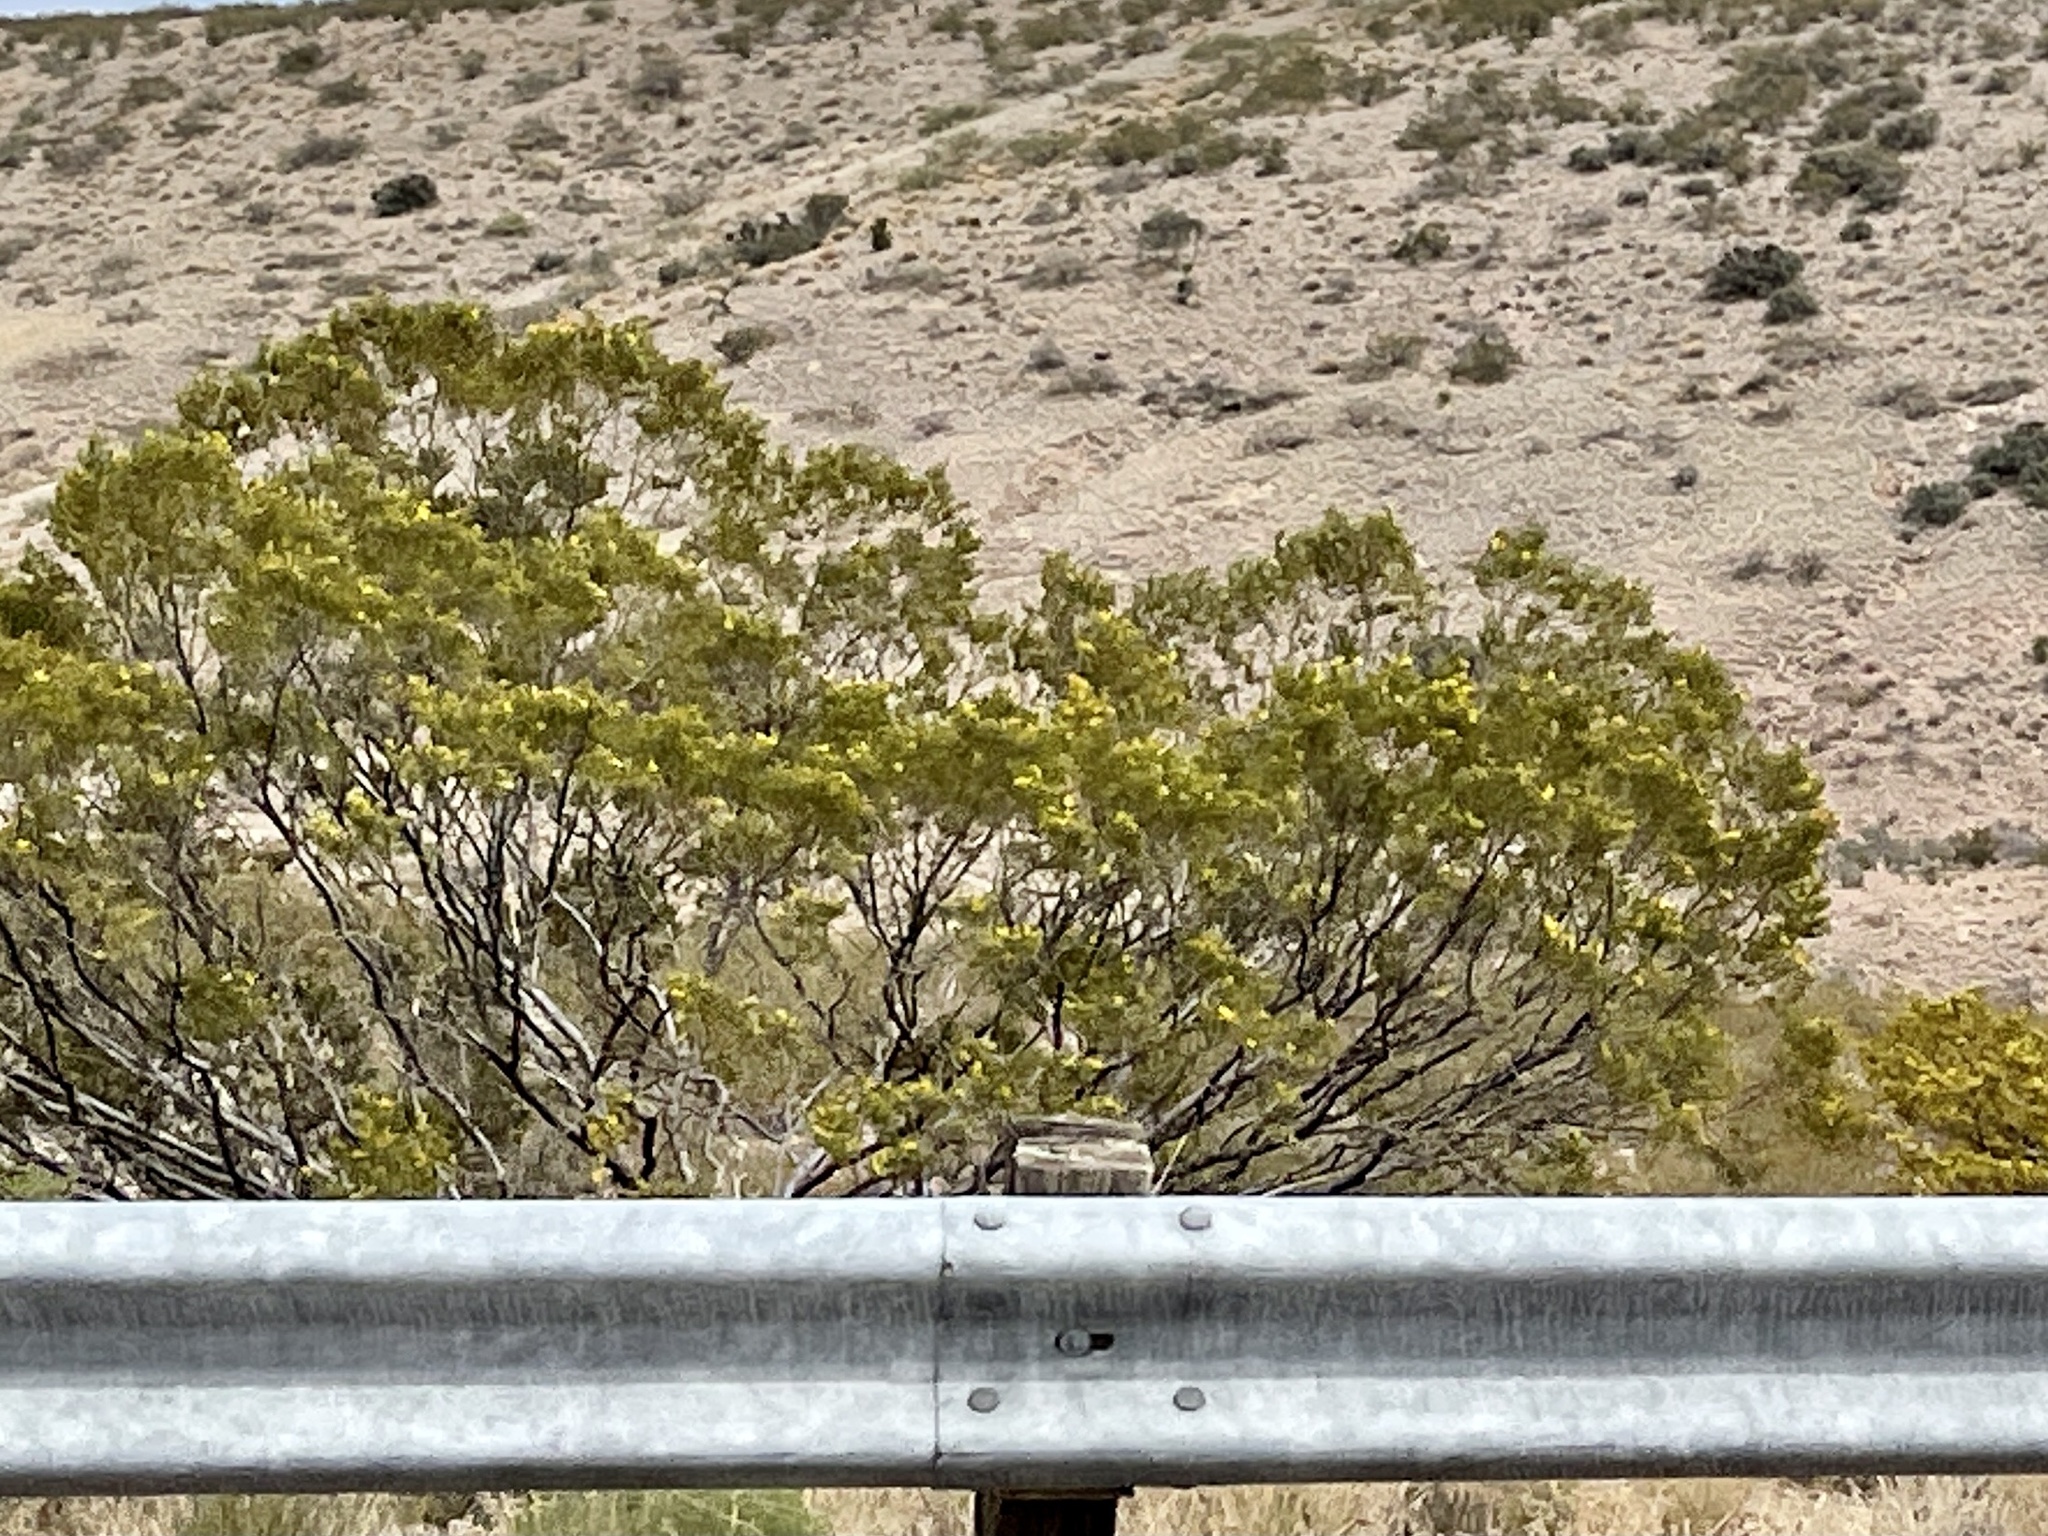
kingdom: Plantae
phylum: Tracheophyta
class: Magnoliopsida
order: Zygophyllales
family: Zygophyllaceae
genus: Larrea
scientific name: Larrea tridentata
